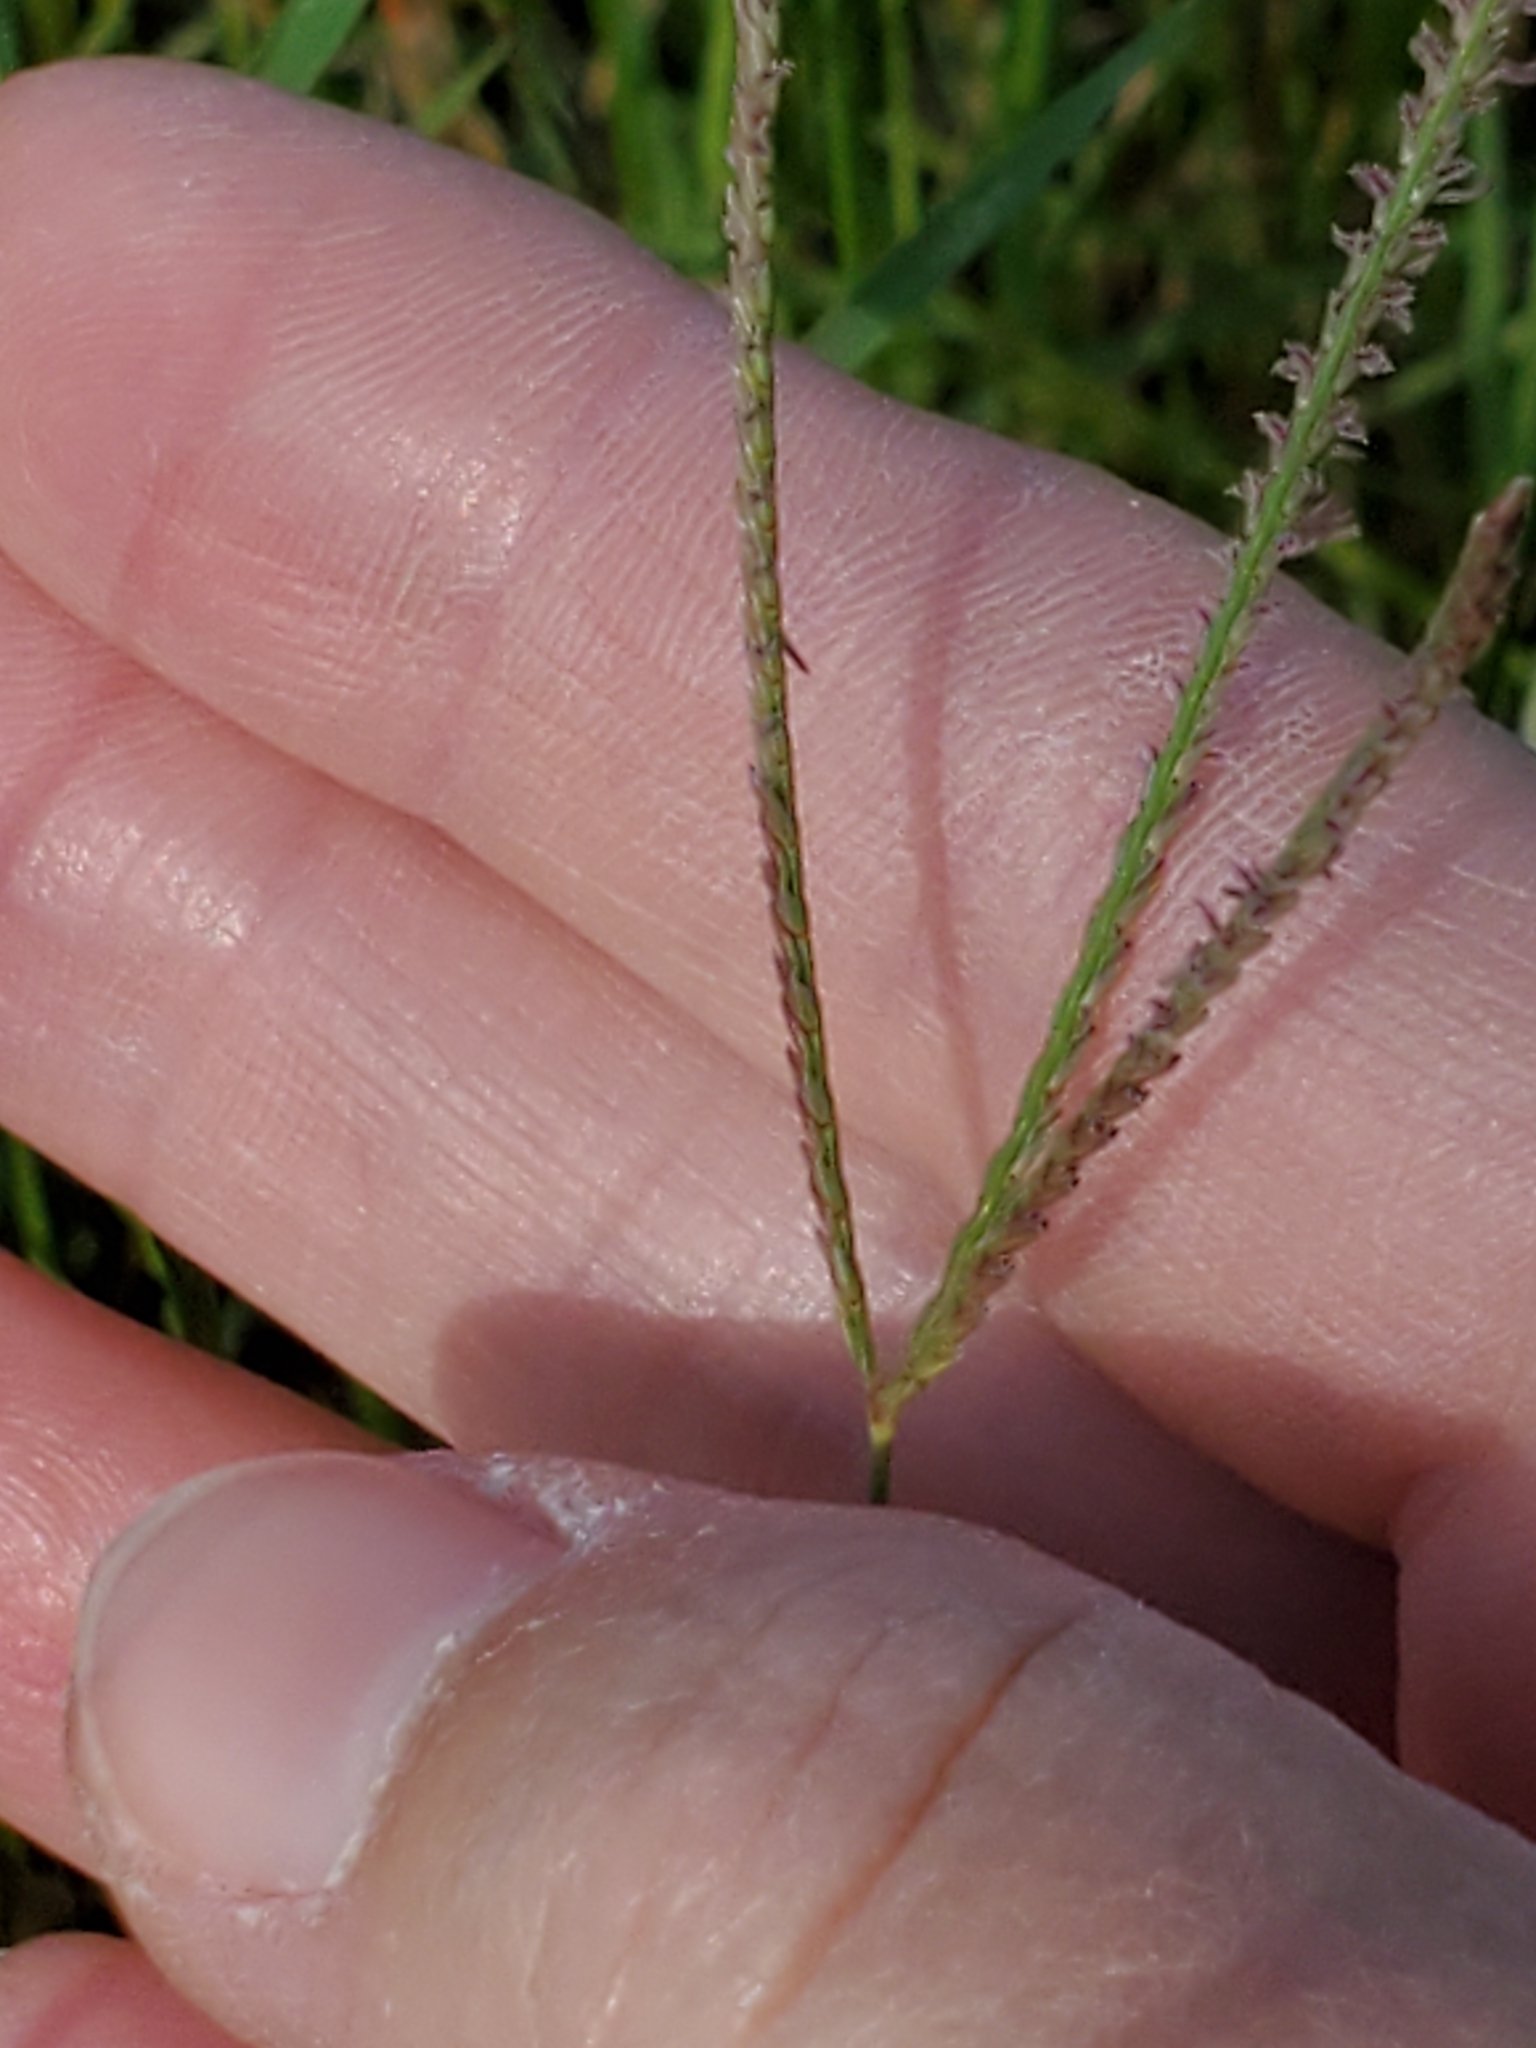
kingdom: Plantae
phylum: Tracheophyta
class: Liliopsida
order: Poales
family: Poaceae
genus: Cynodon
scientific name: Cynodon dactylon
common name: Bermuda grass
